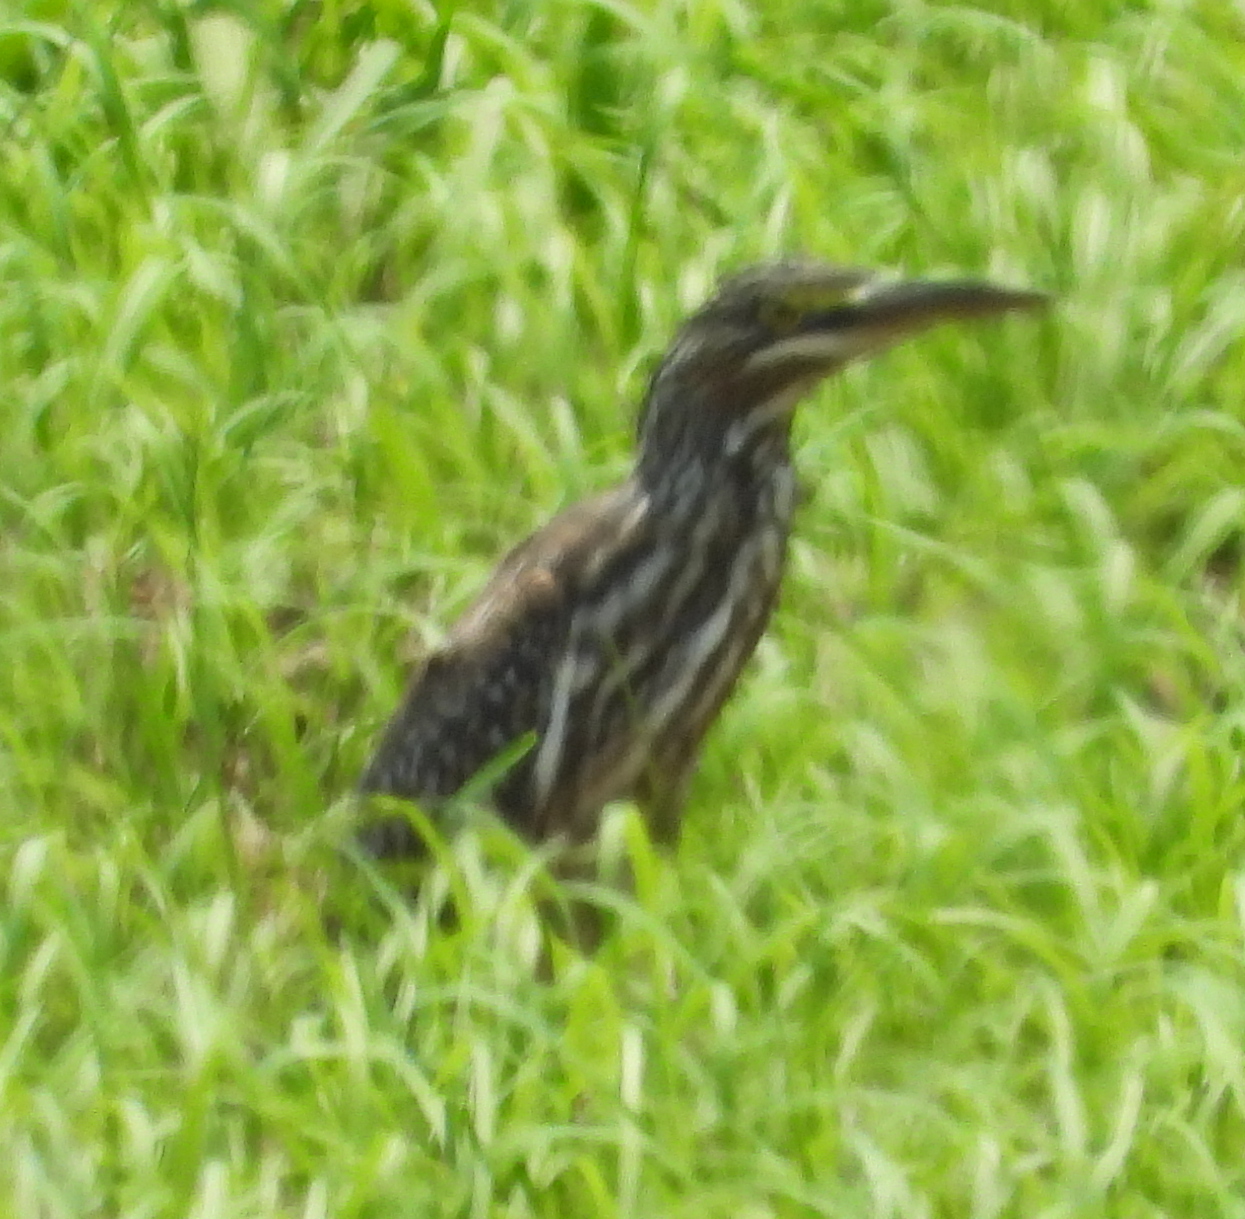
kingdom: Animalia
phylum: Chordata
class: Aves
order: Pelecaniformes
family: Ardeidae
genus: Butorides
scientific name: Butorides striata
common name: Striated heron
